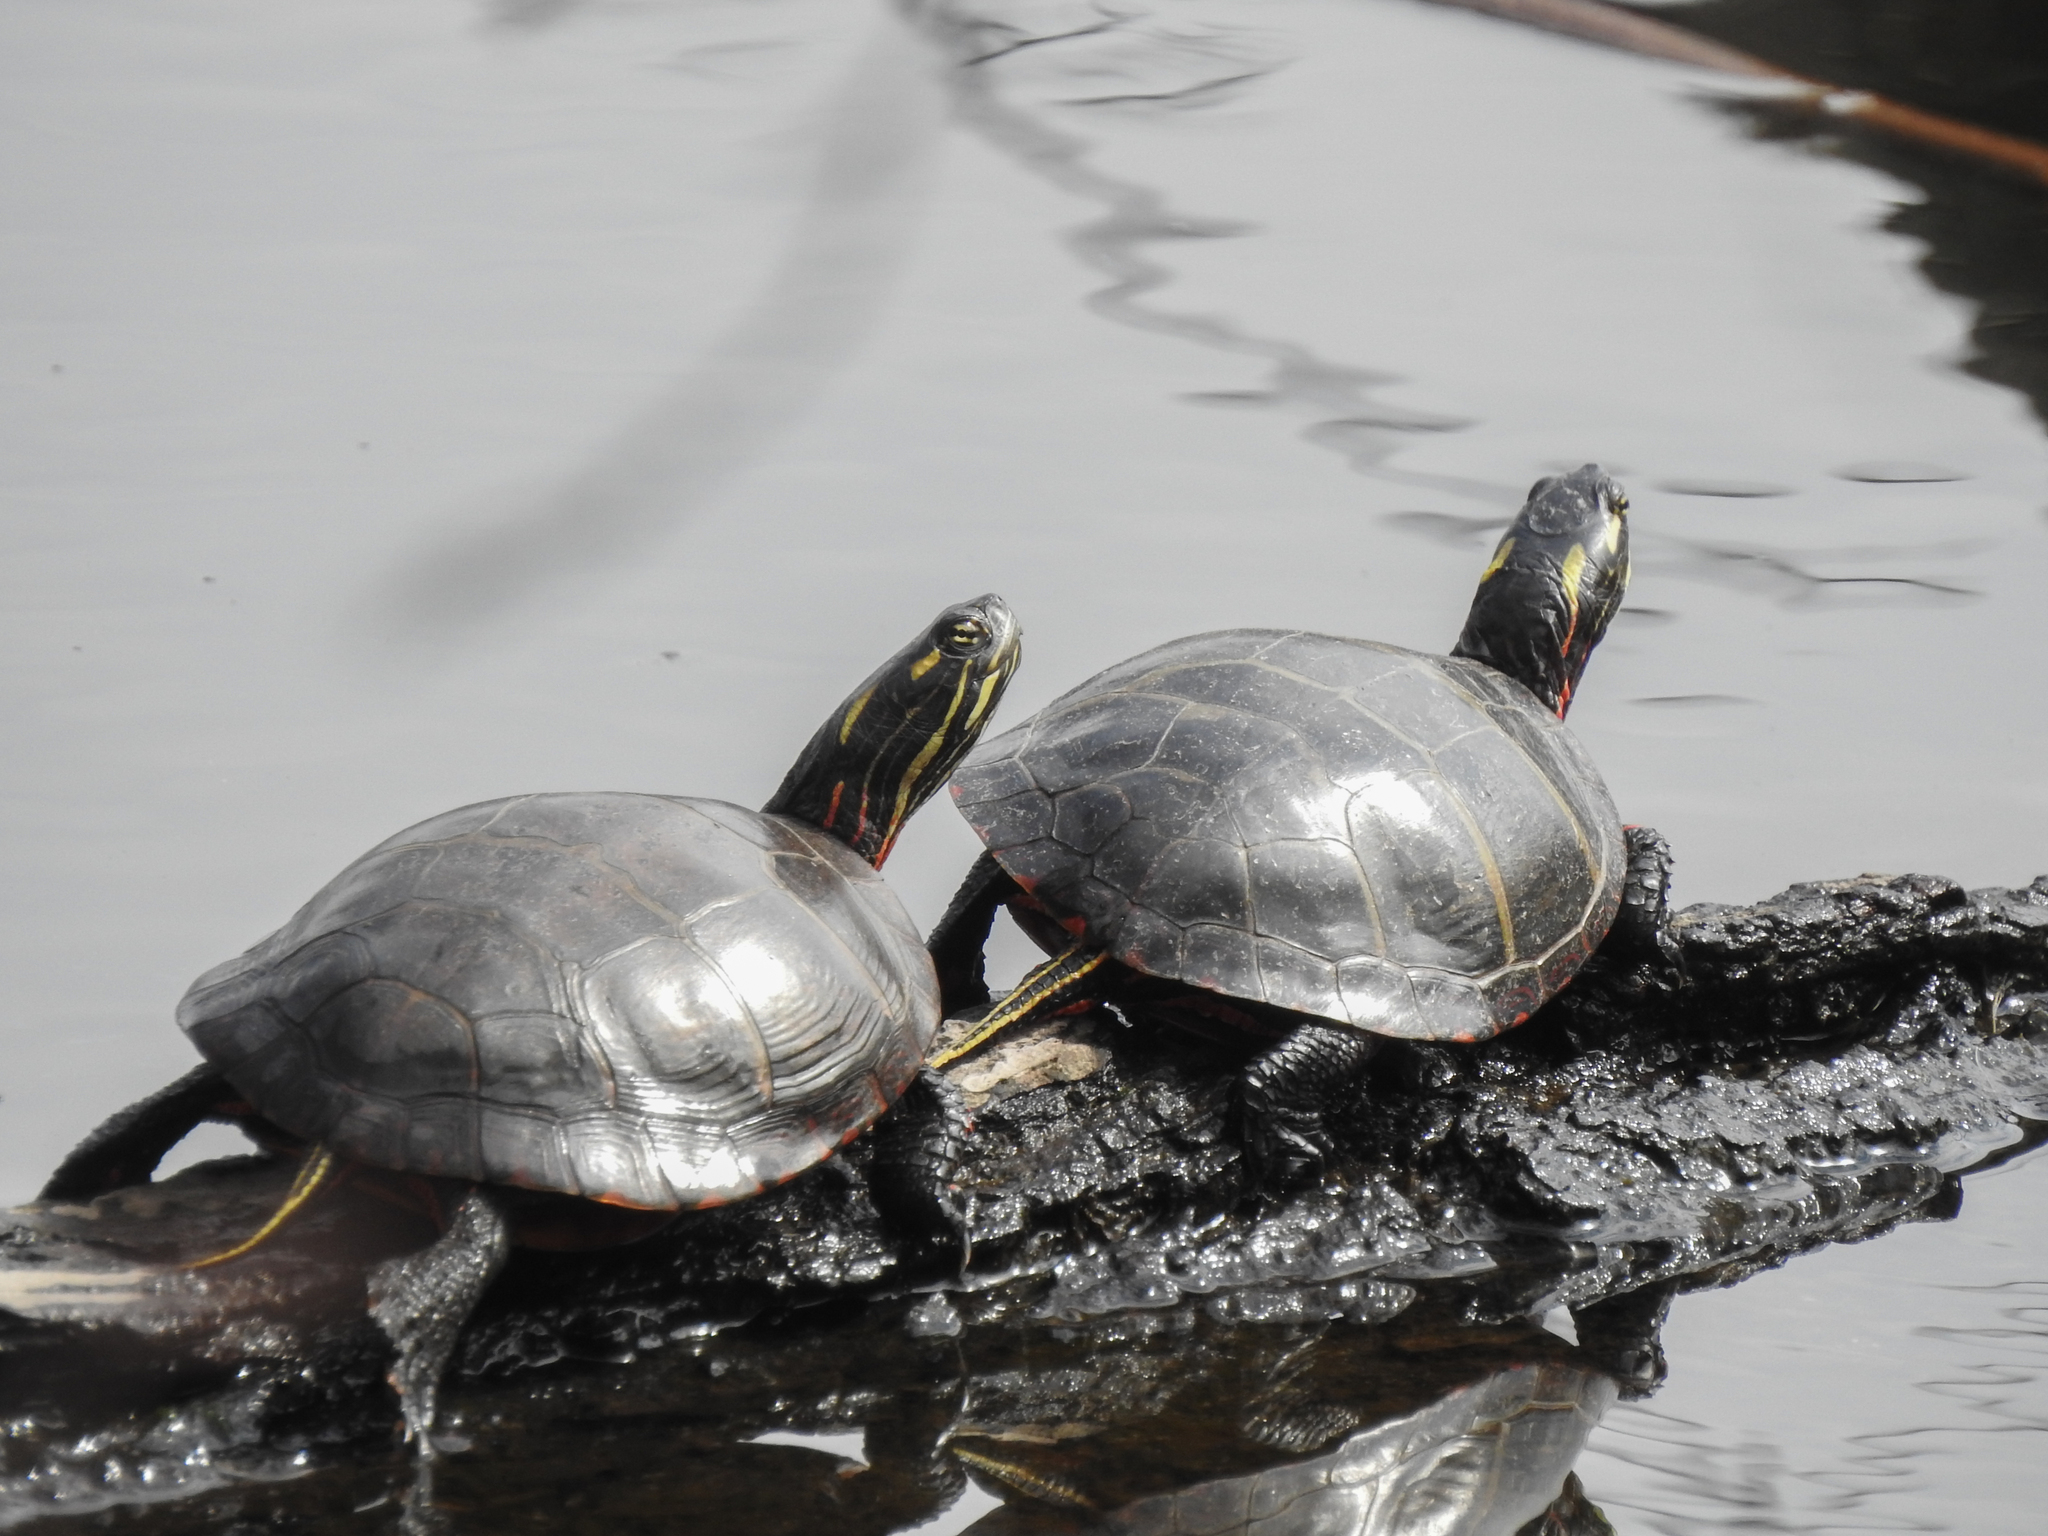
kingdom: Animalia
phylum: Chordata
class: Testudines
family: Emydidae
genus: Chrysemys
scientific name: Chrysemys picta
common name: Painted turtle
